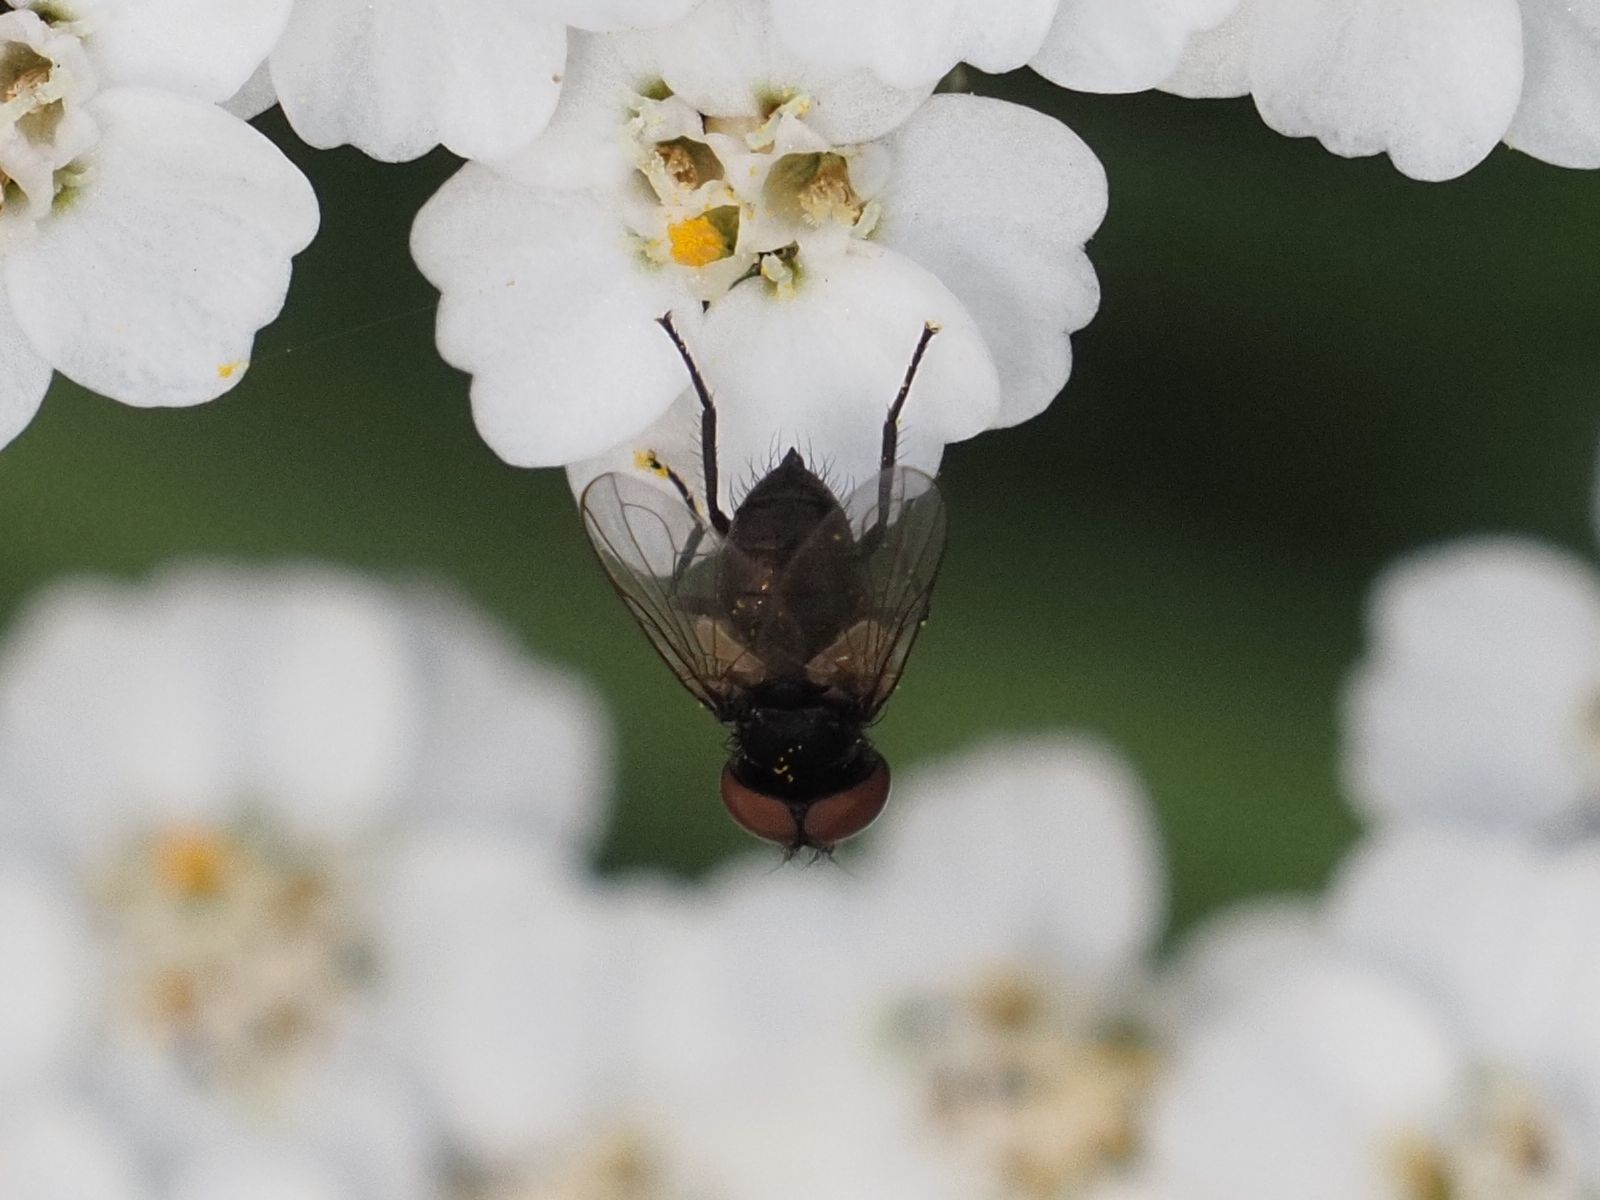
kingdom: Animalia
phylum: Arthropoda
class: Insecta
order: Diptera
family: Tachinidae
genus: Phasia
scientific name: Phasia barbifrons
